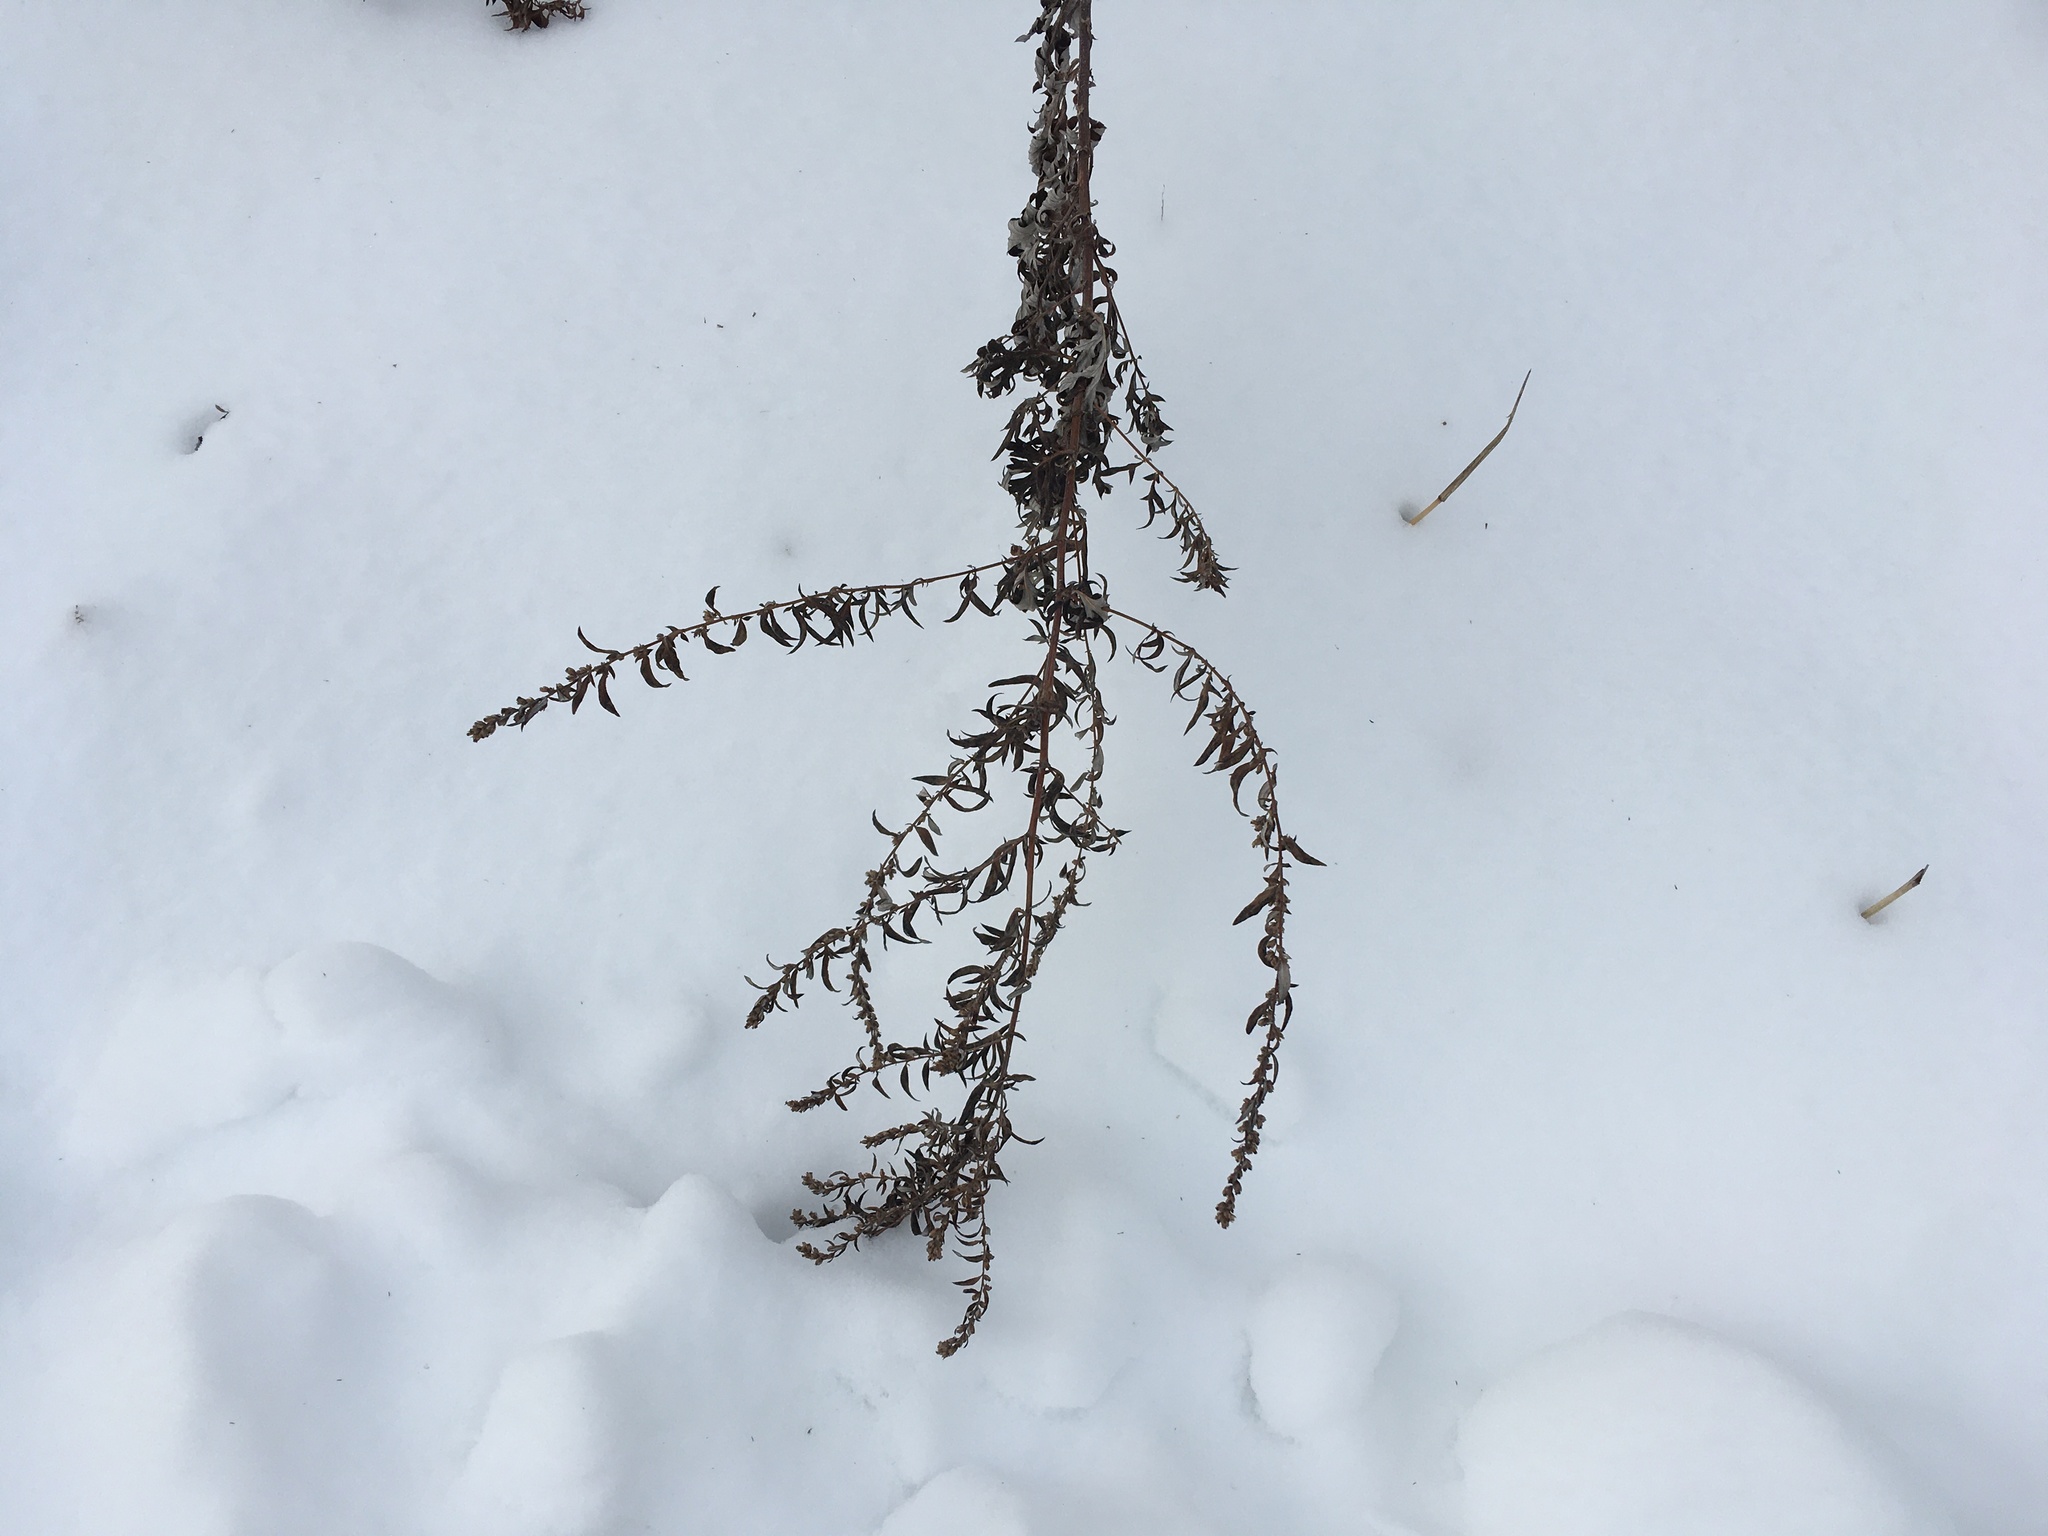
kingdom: Plantae
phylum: Tracheophyta
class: Magnoliopsida
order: Asterales
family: Asteraceae
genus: Artemisia
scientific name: Artemisia vulgaris
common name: Mugwort
